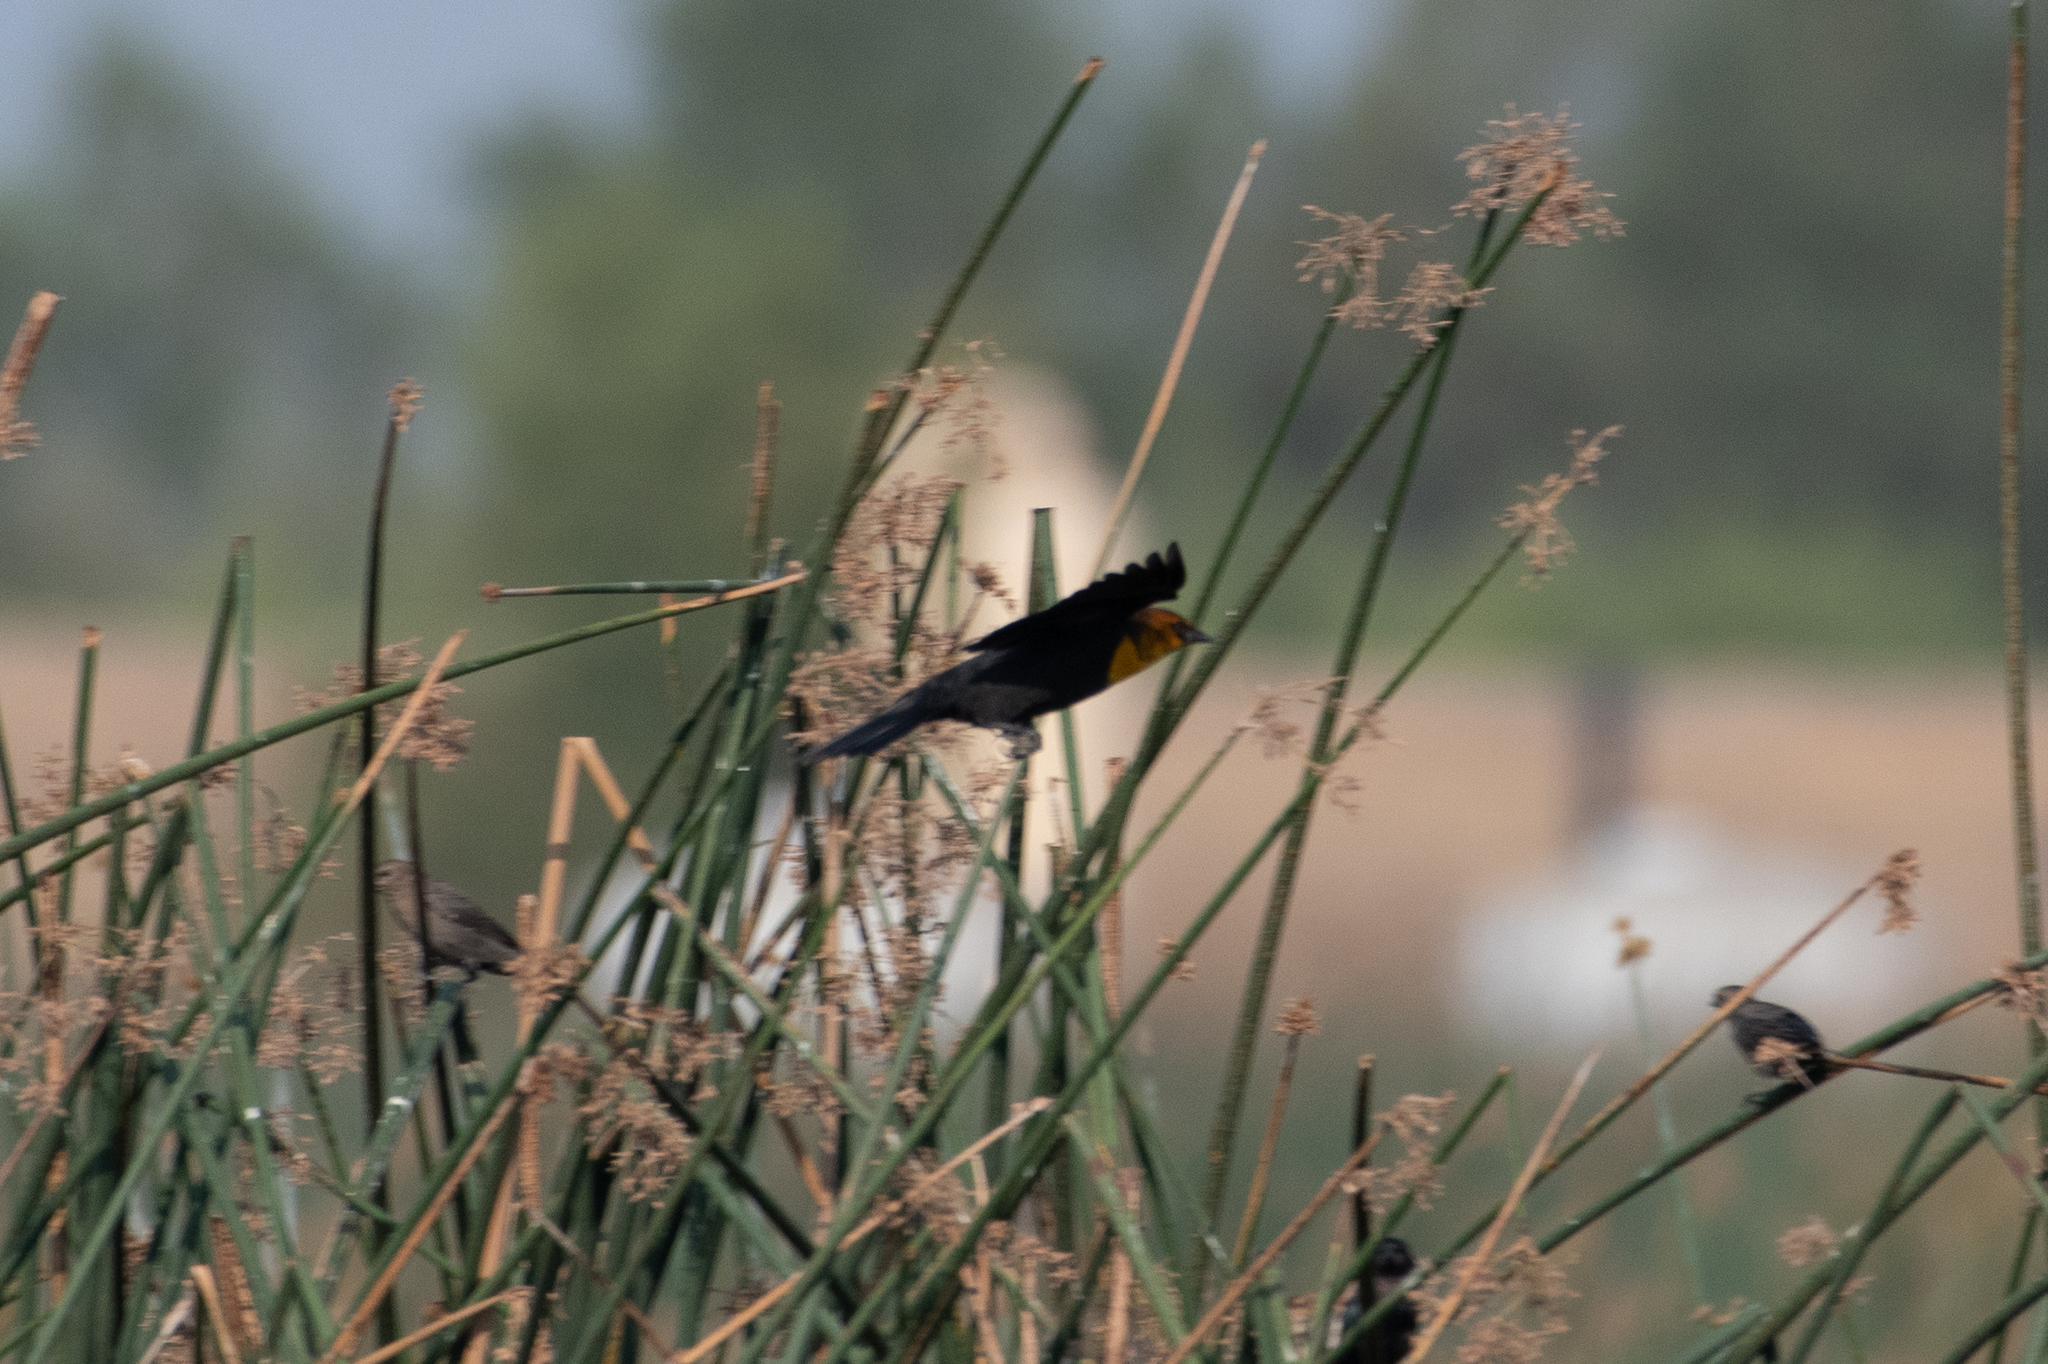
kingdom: Animalia
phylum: Chordata
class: Aves
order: Passeriformes
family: Icteridae
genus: Xanthocephalus
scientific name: Xanthocephalus xanthocephalus
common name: Yellow-headed blackbird
